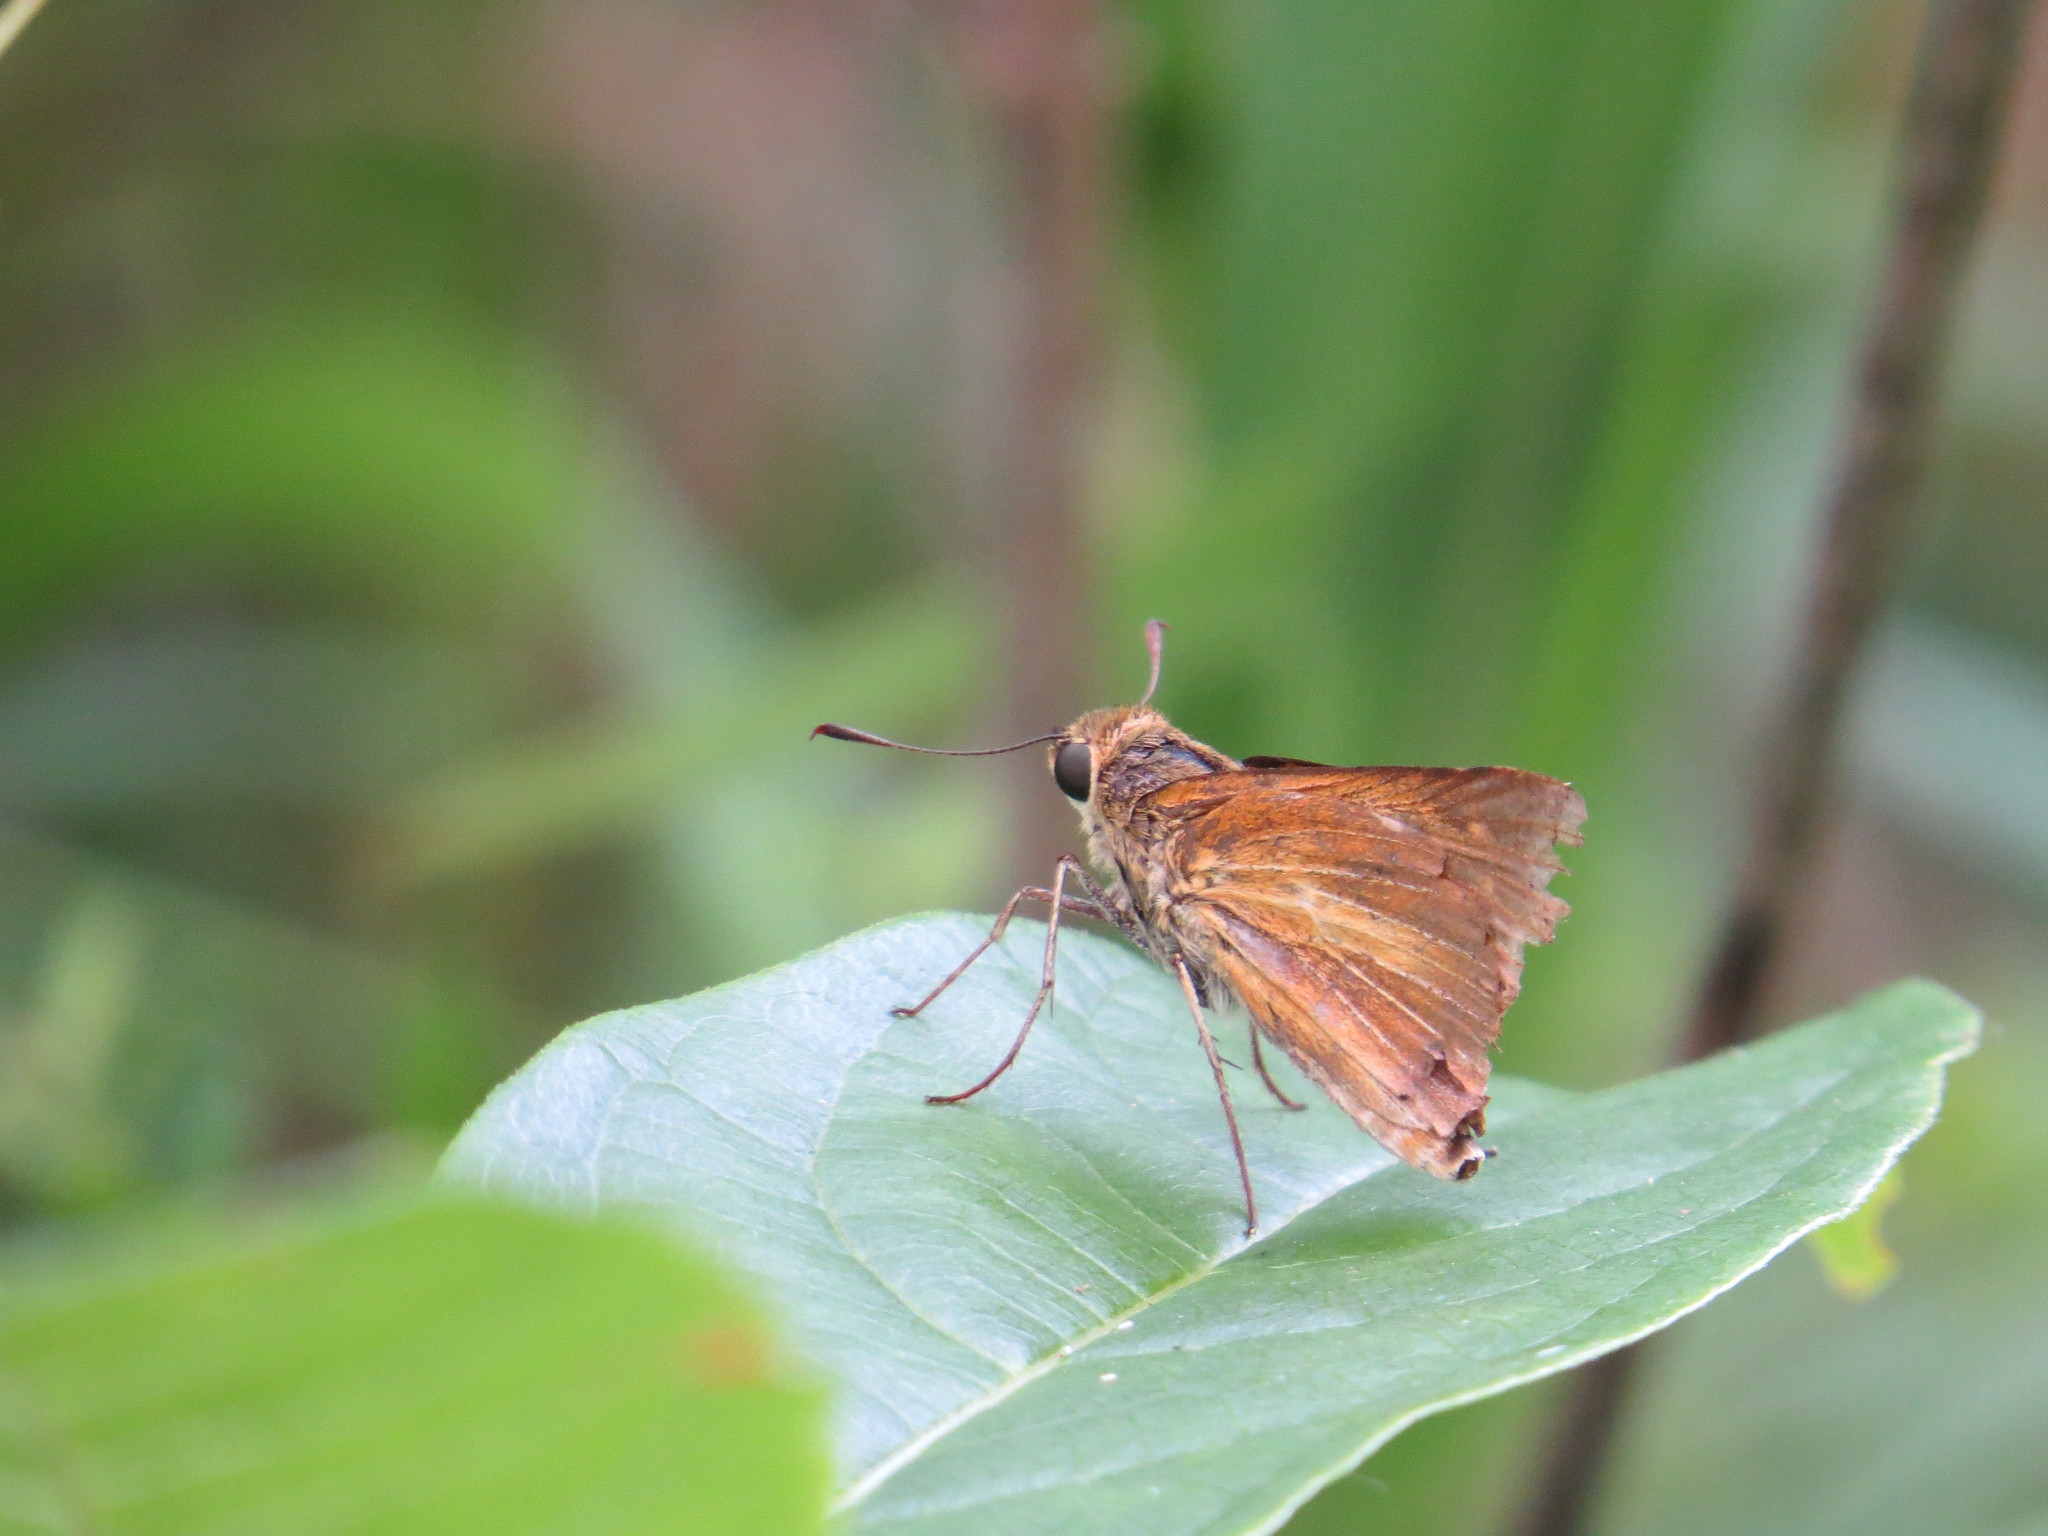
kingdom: Animalia
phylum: Arthropoda
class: Insecta
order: Lepidoptera
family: Hesperiidae
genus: Euphyes
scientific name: Euphyes dion
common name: Dion skipper
